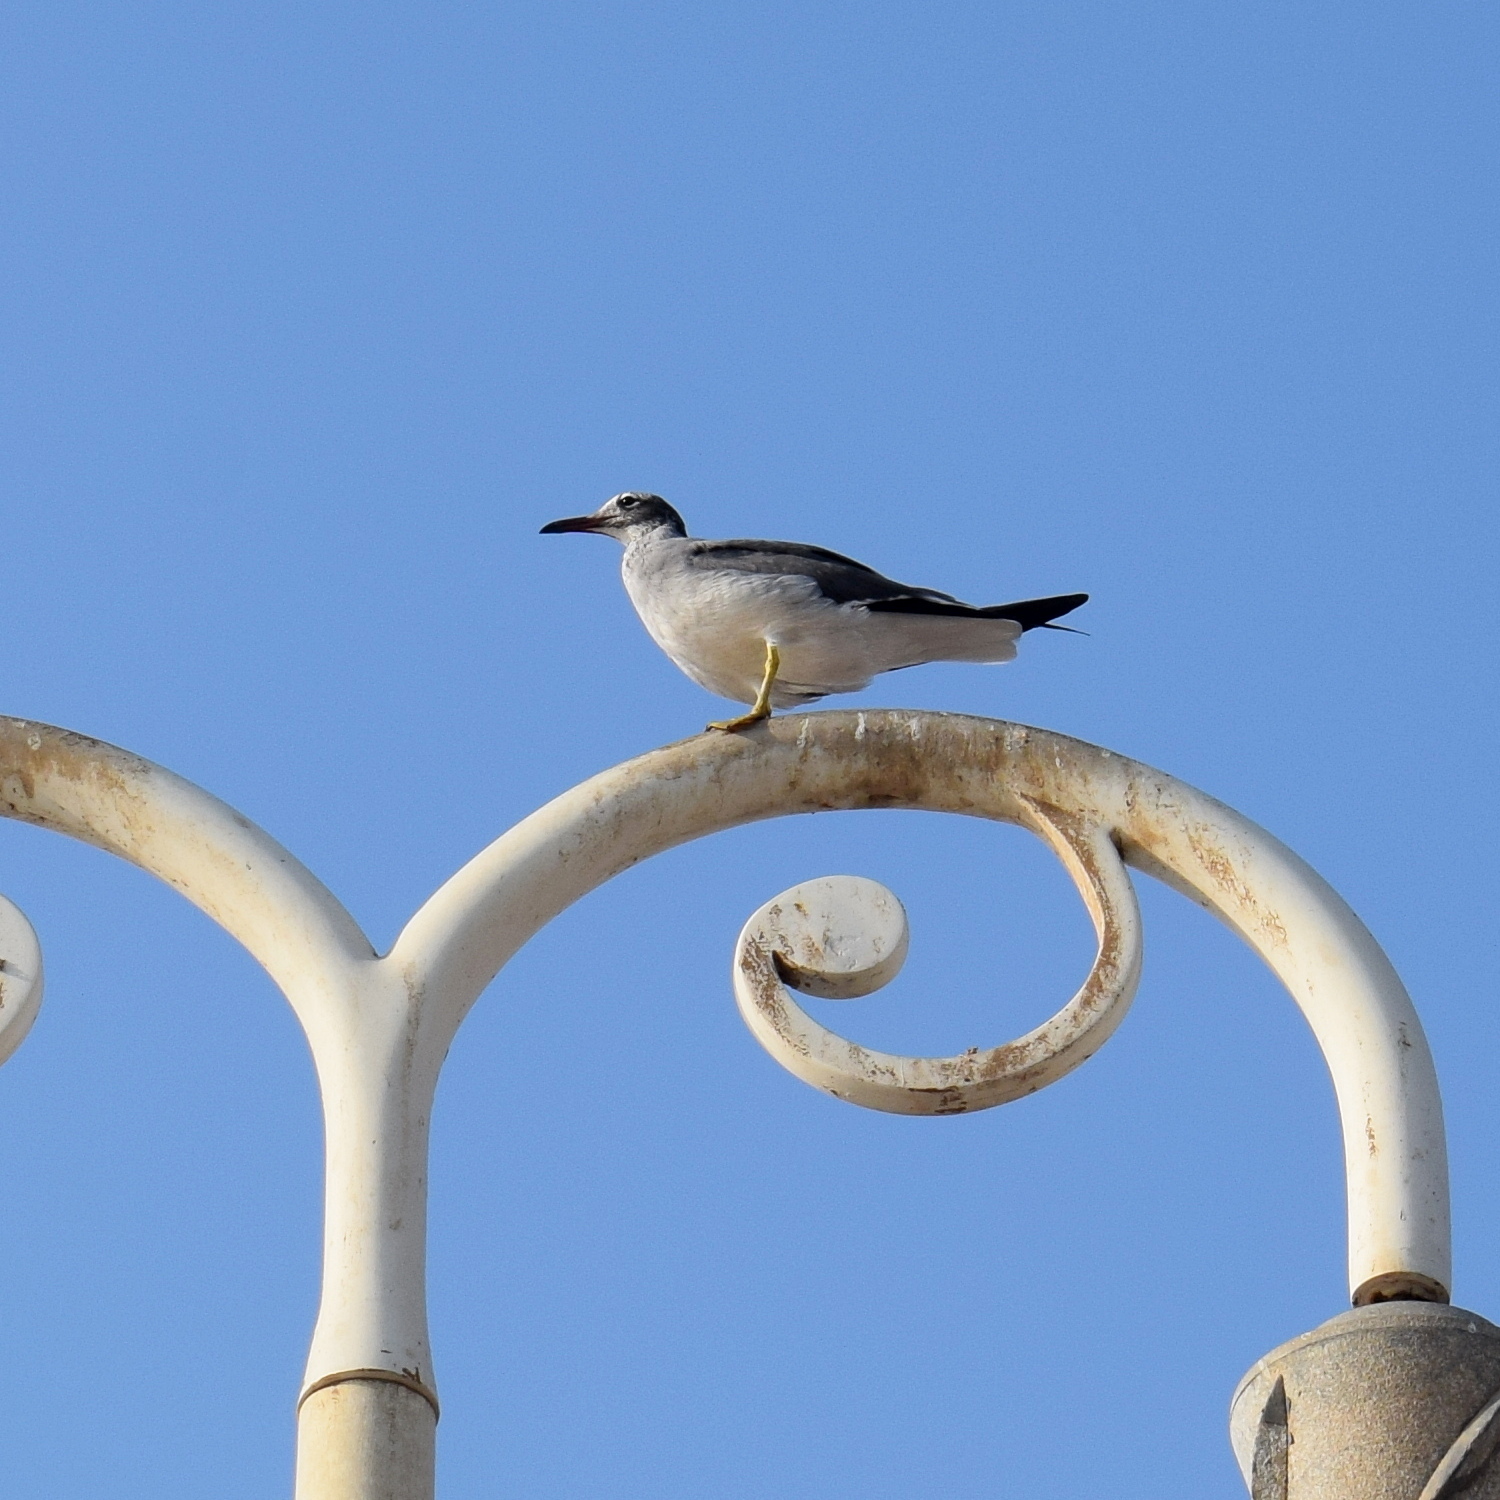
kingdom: Animalia
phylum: Chordata
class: Aves
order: Charadriiformes
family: Laridae
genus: Ichthyaetus
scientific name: Ichthyaetus leucophthalmus
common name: White-eyed gull
